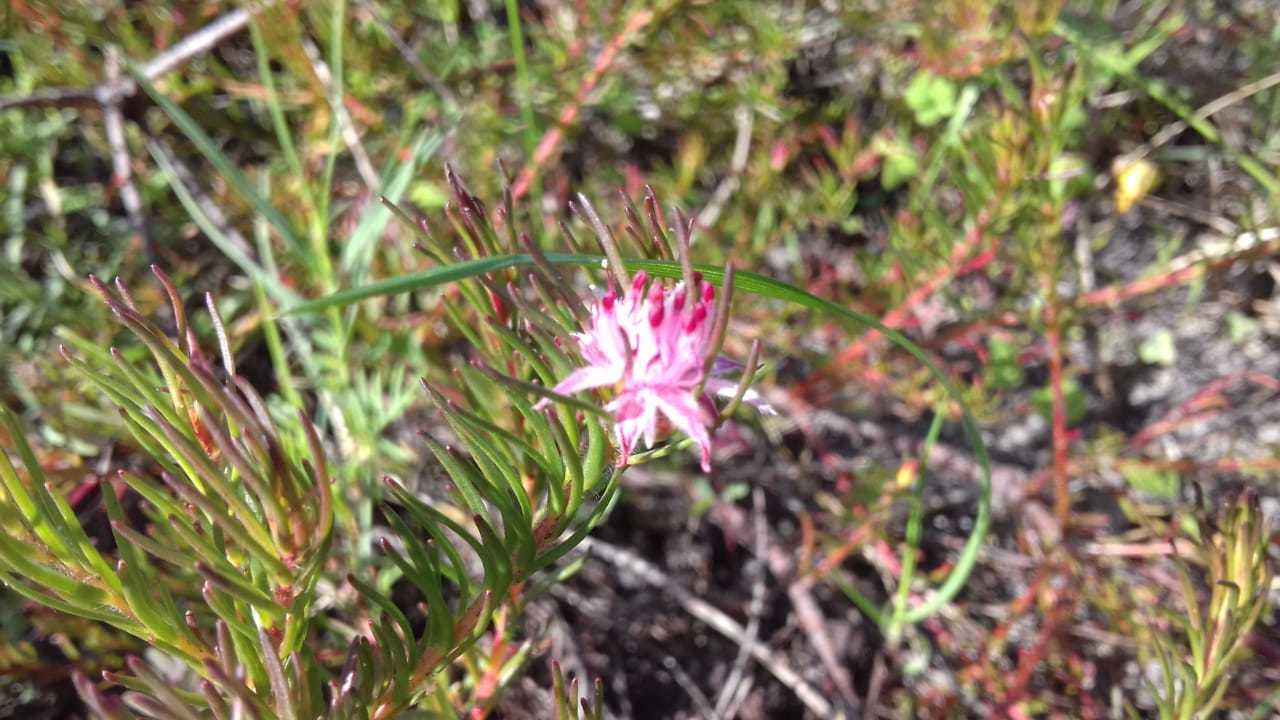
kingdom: Plantae
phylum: Tracheophyta
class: Magnoliopsida
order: Proteales
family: Proteaceae
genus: Diastella
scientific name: Diastella proteoides
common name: Flats silkypuff
